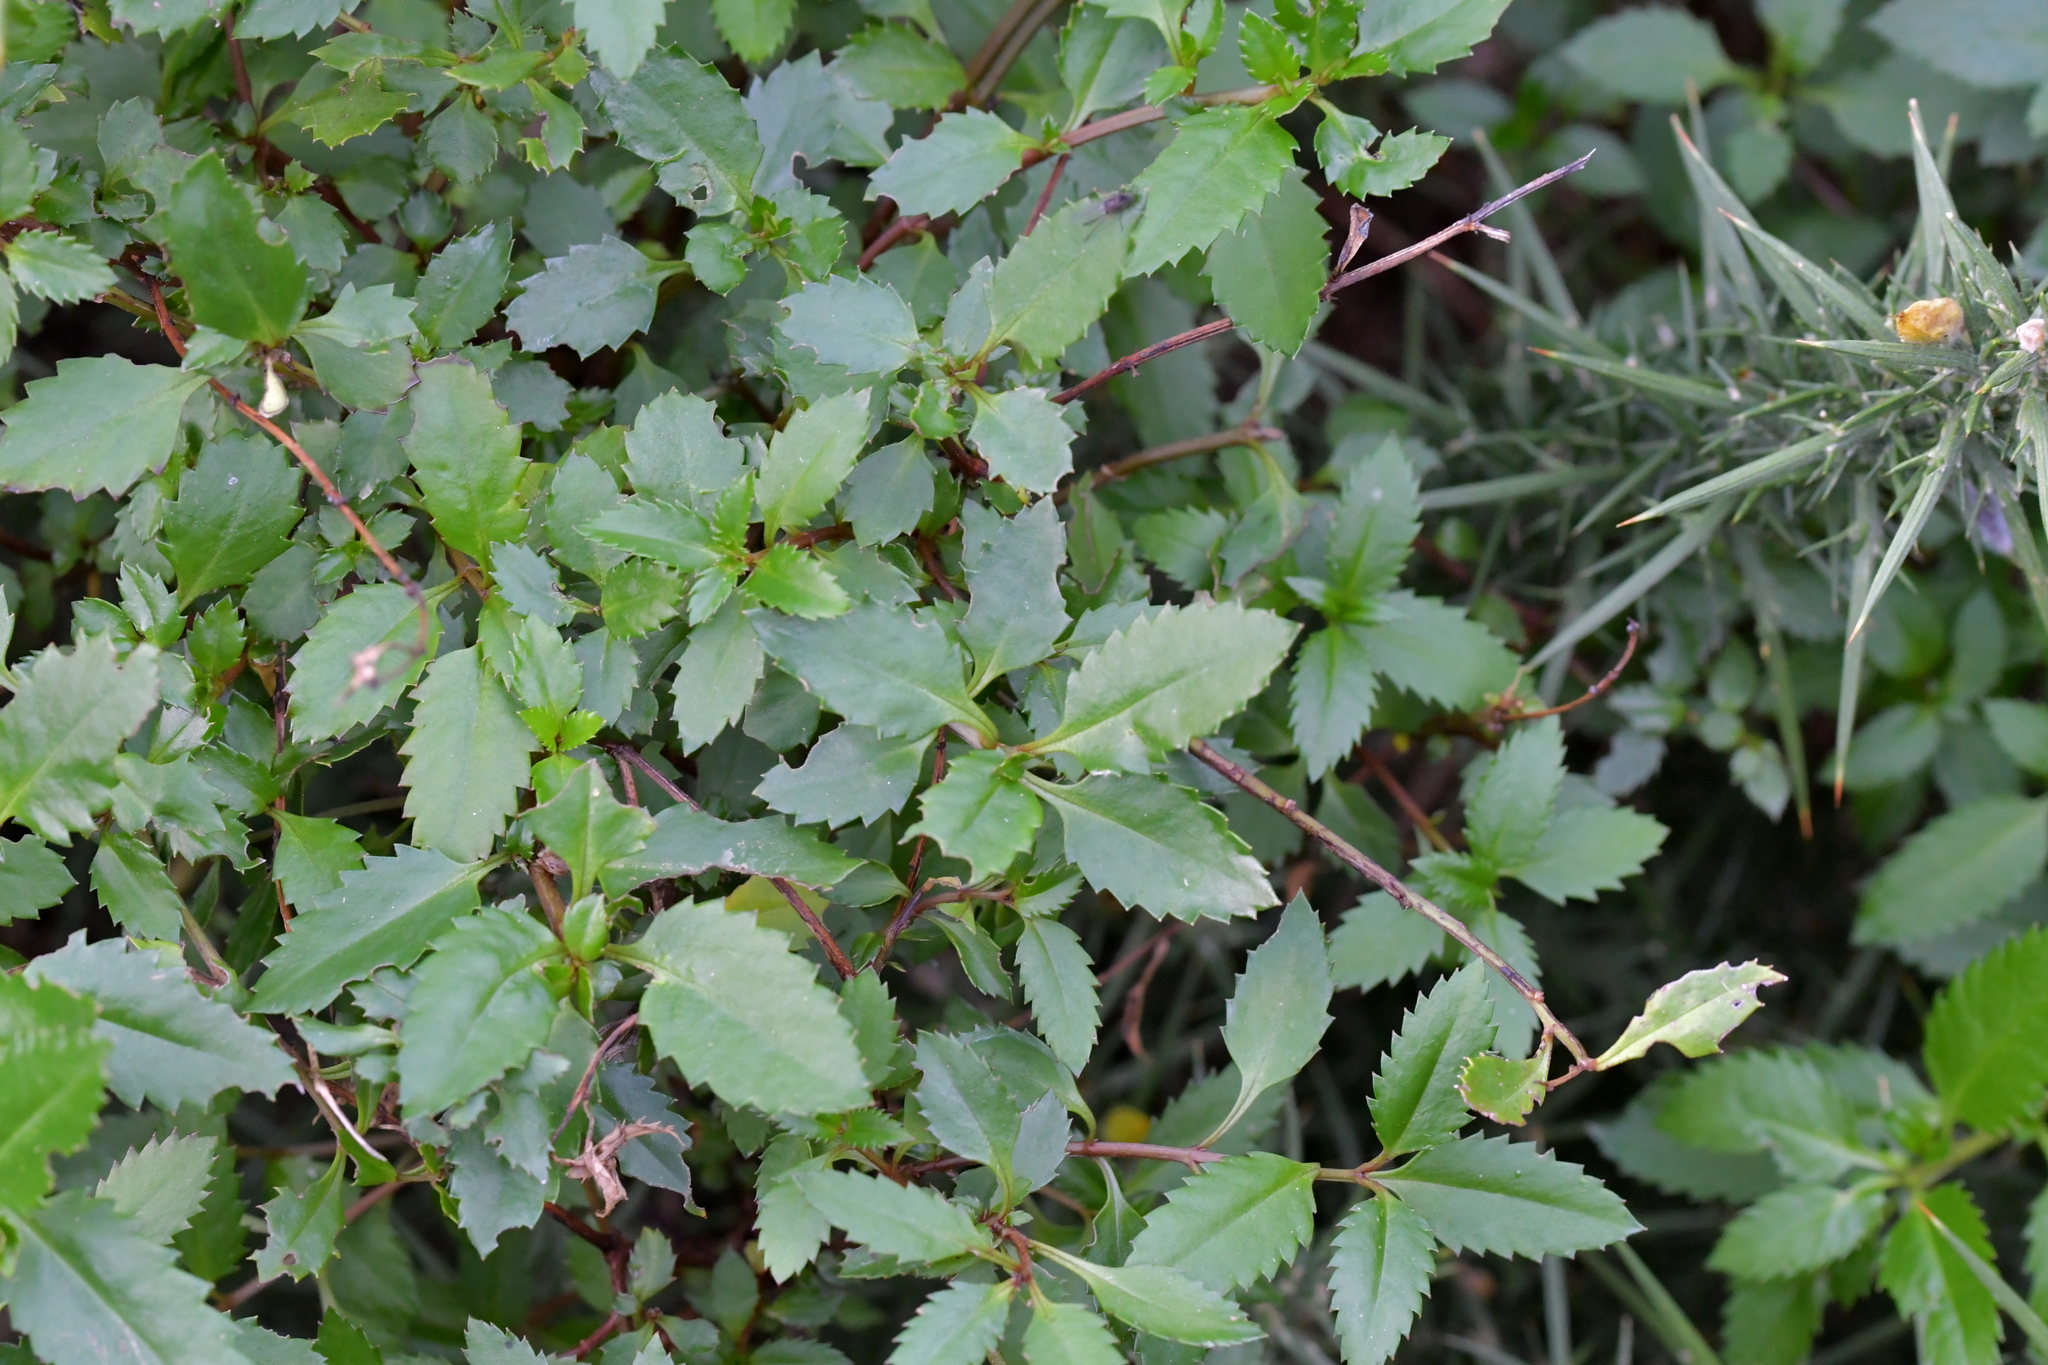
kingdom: Plantae
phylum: Tracheophyta
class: Magnoliopsida
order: Saxifragales
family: Haloragaceae
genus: Haloragis
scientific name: Haloragis erecta
